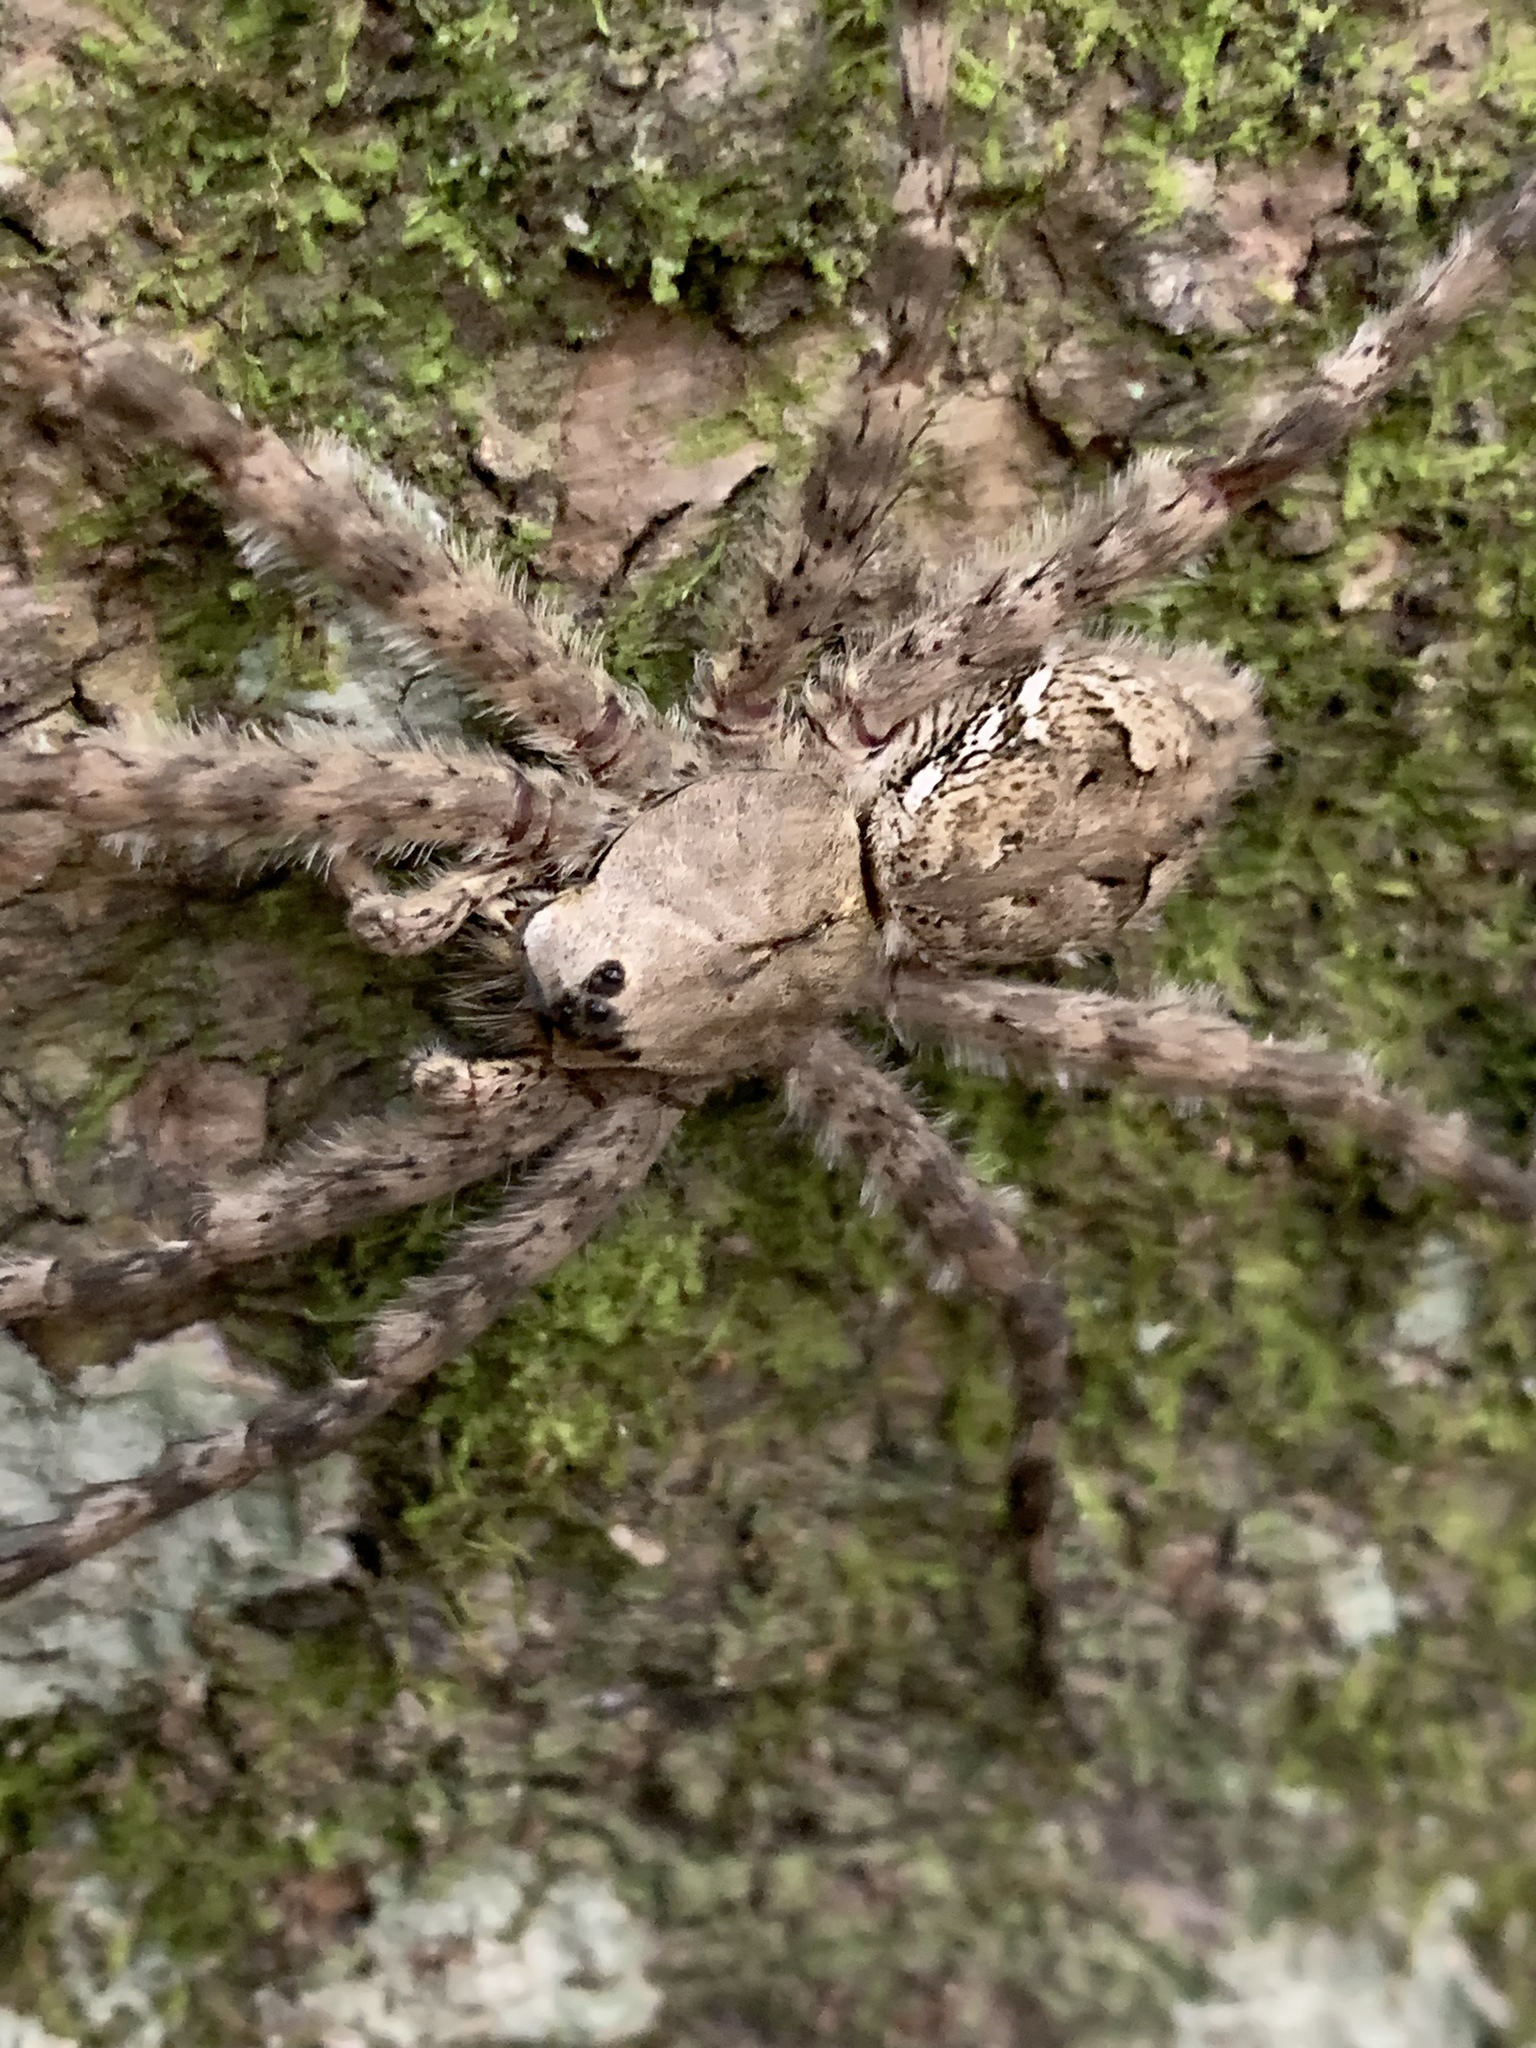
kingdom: Animalia
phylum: Arthropoda
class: Arachnida
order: Araneae
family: Pisauridae
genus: Dolomedes
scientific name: Dolomedes albineus
